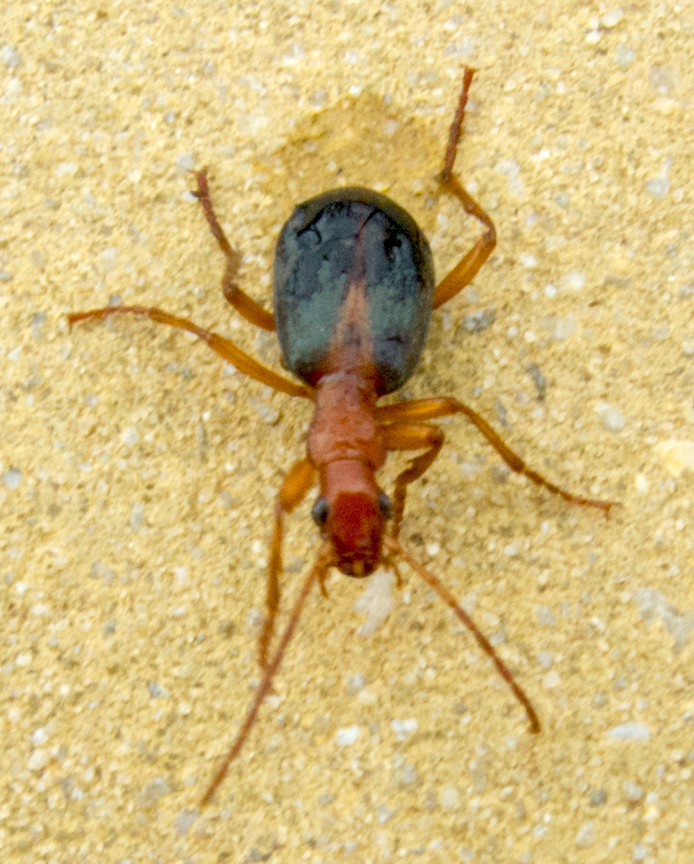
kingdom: Animalia
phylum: Arthropoda
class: Insecta
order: Coleoptera
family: Carabidae
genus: Brachinus
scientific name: Brachinus alexandri
